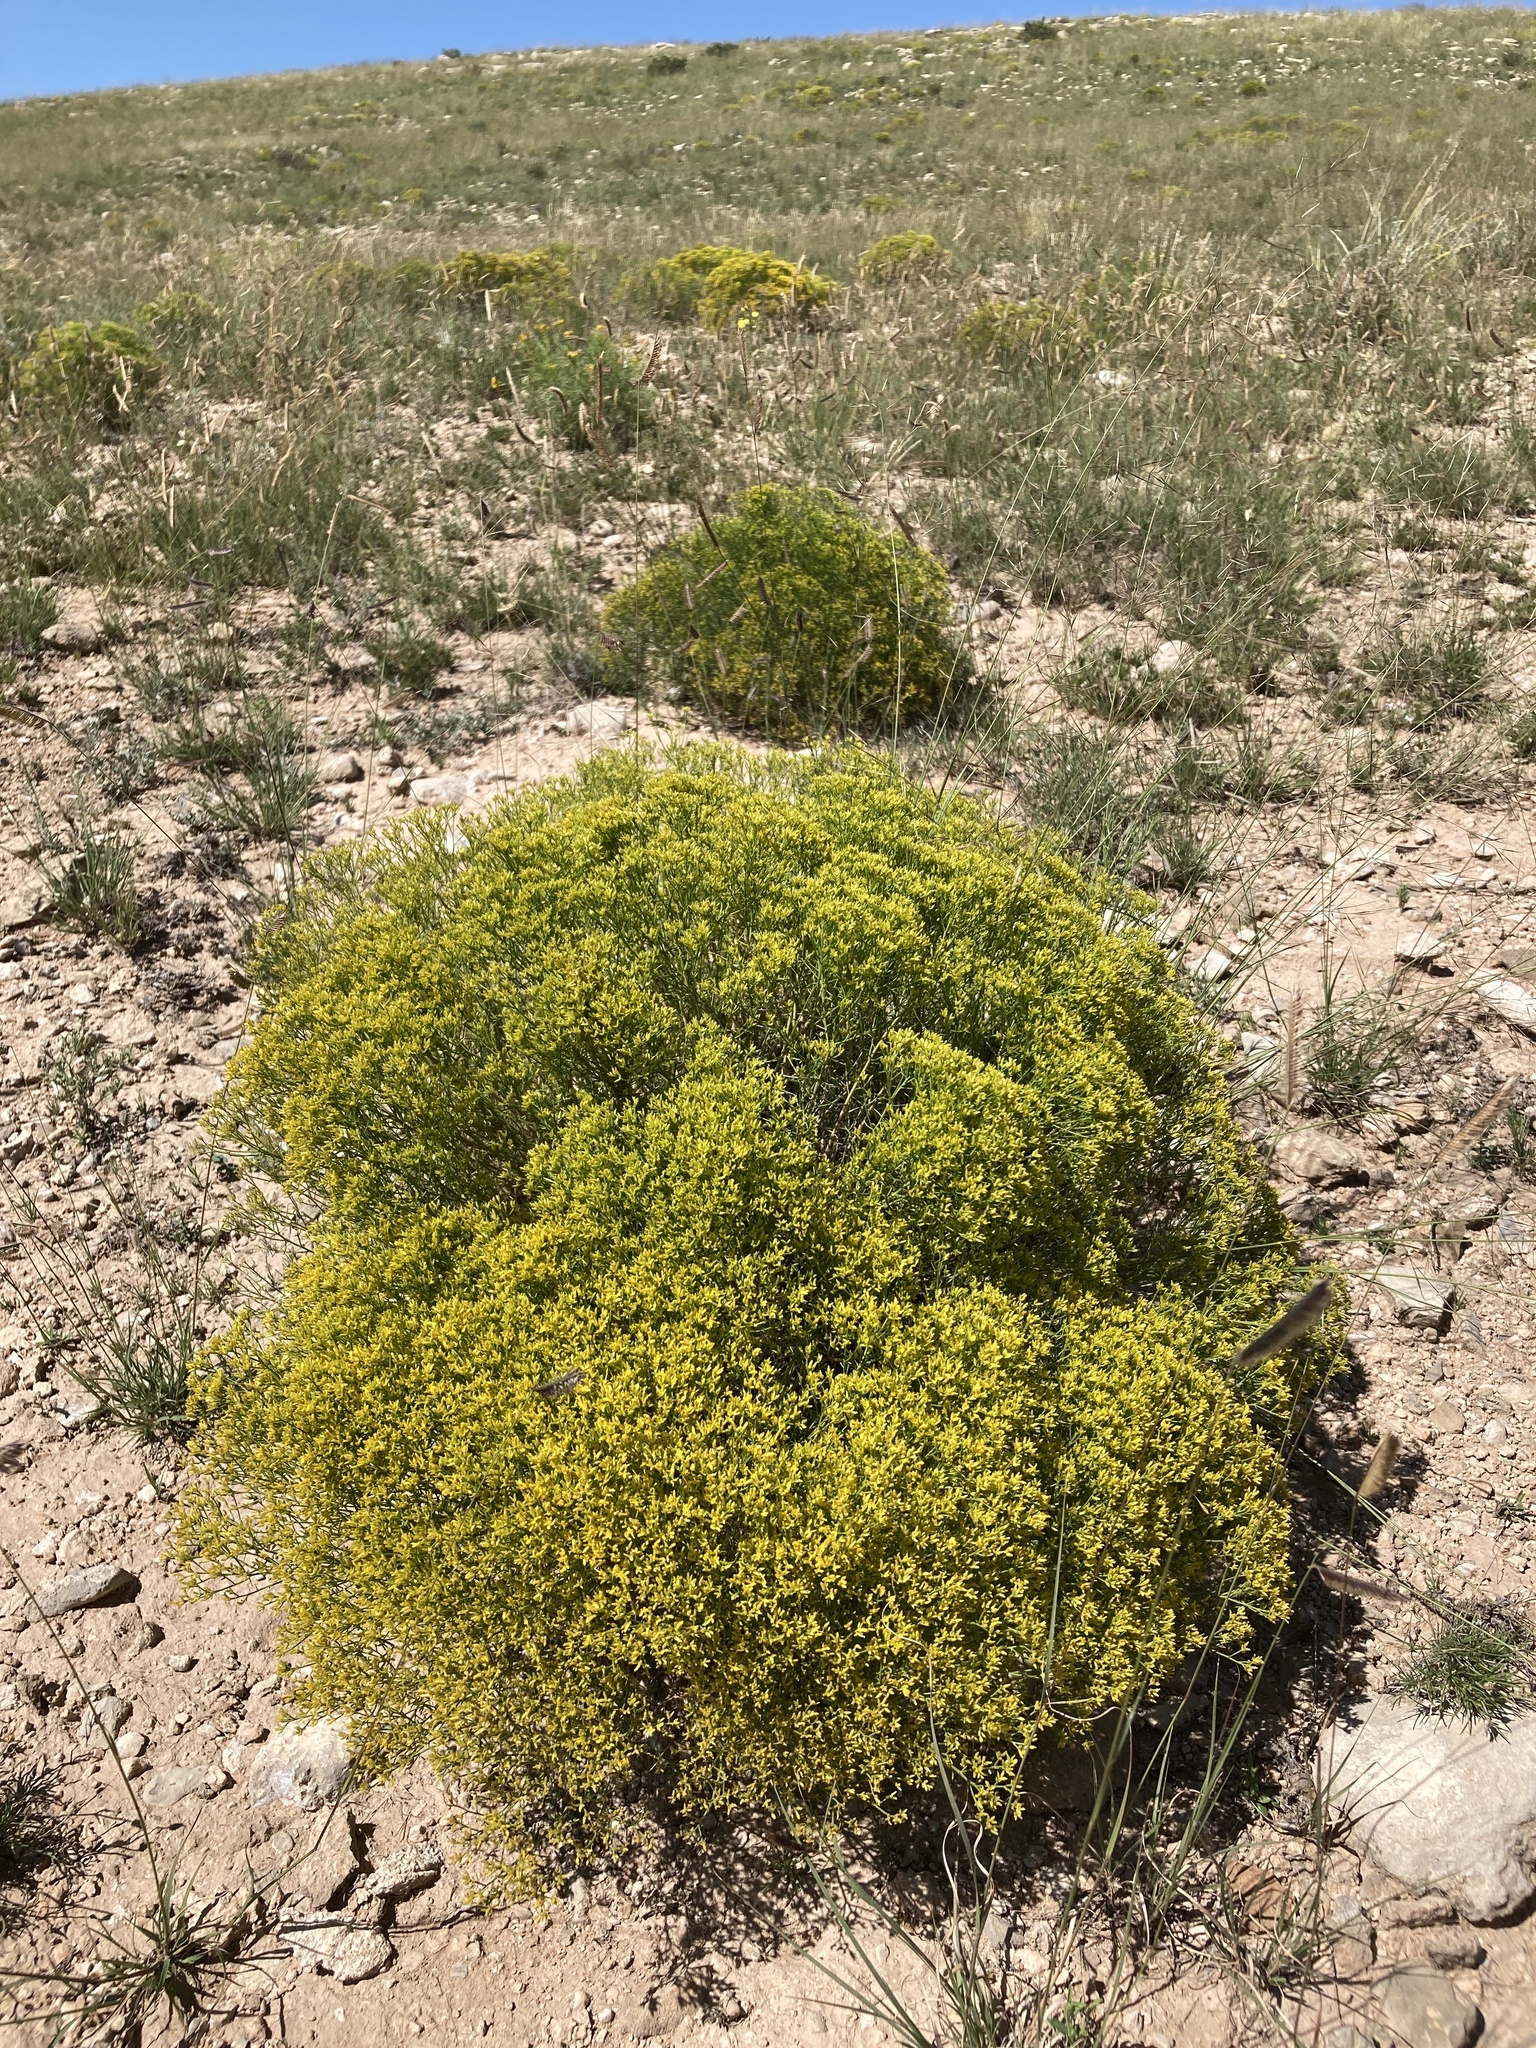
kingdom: Plantae
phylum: Tracheophyta
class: Magnoliopsida
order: Asterales
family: Asteraceae
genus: Gutierrezia
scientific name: Gutierrezia microcephala
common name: Thread snakeweed
